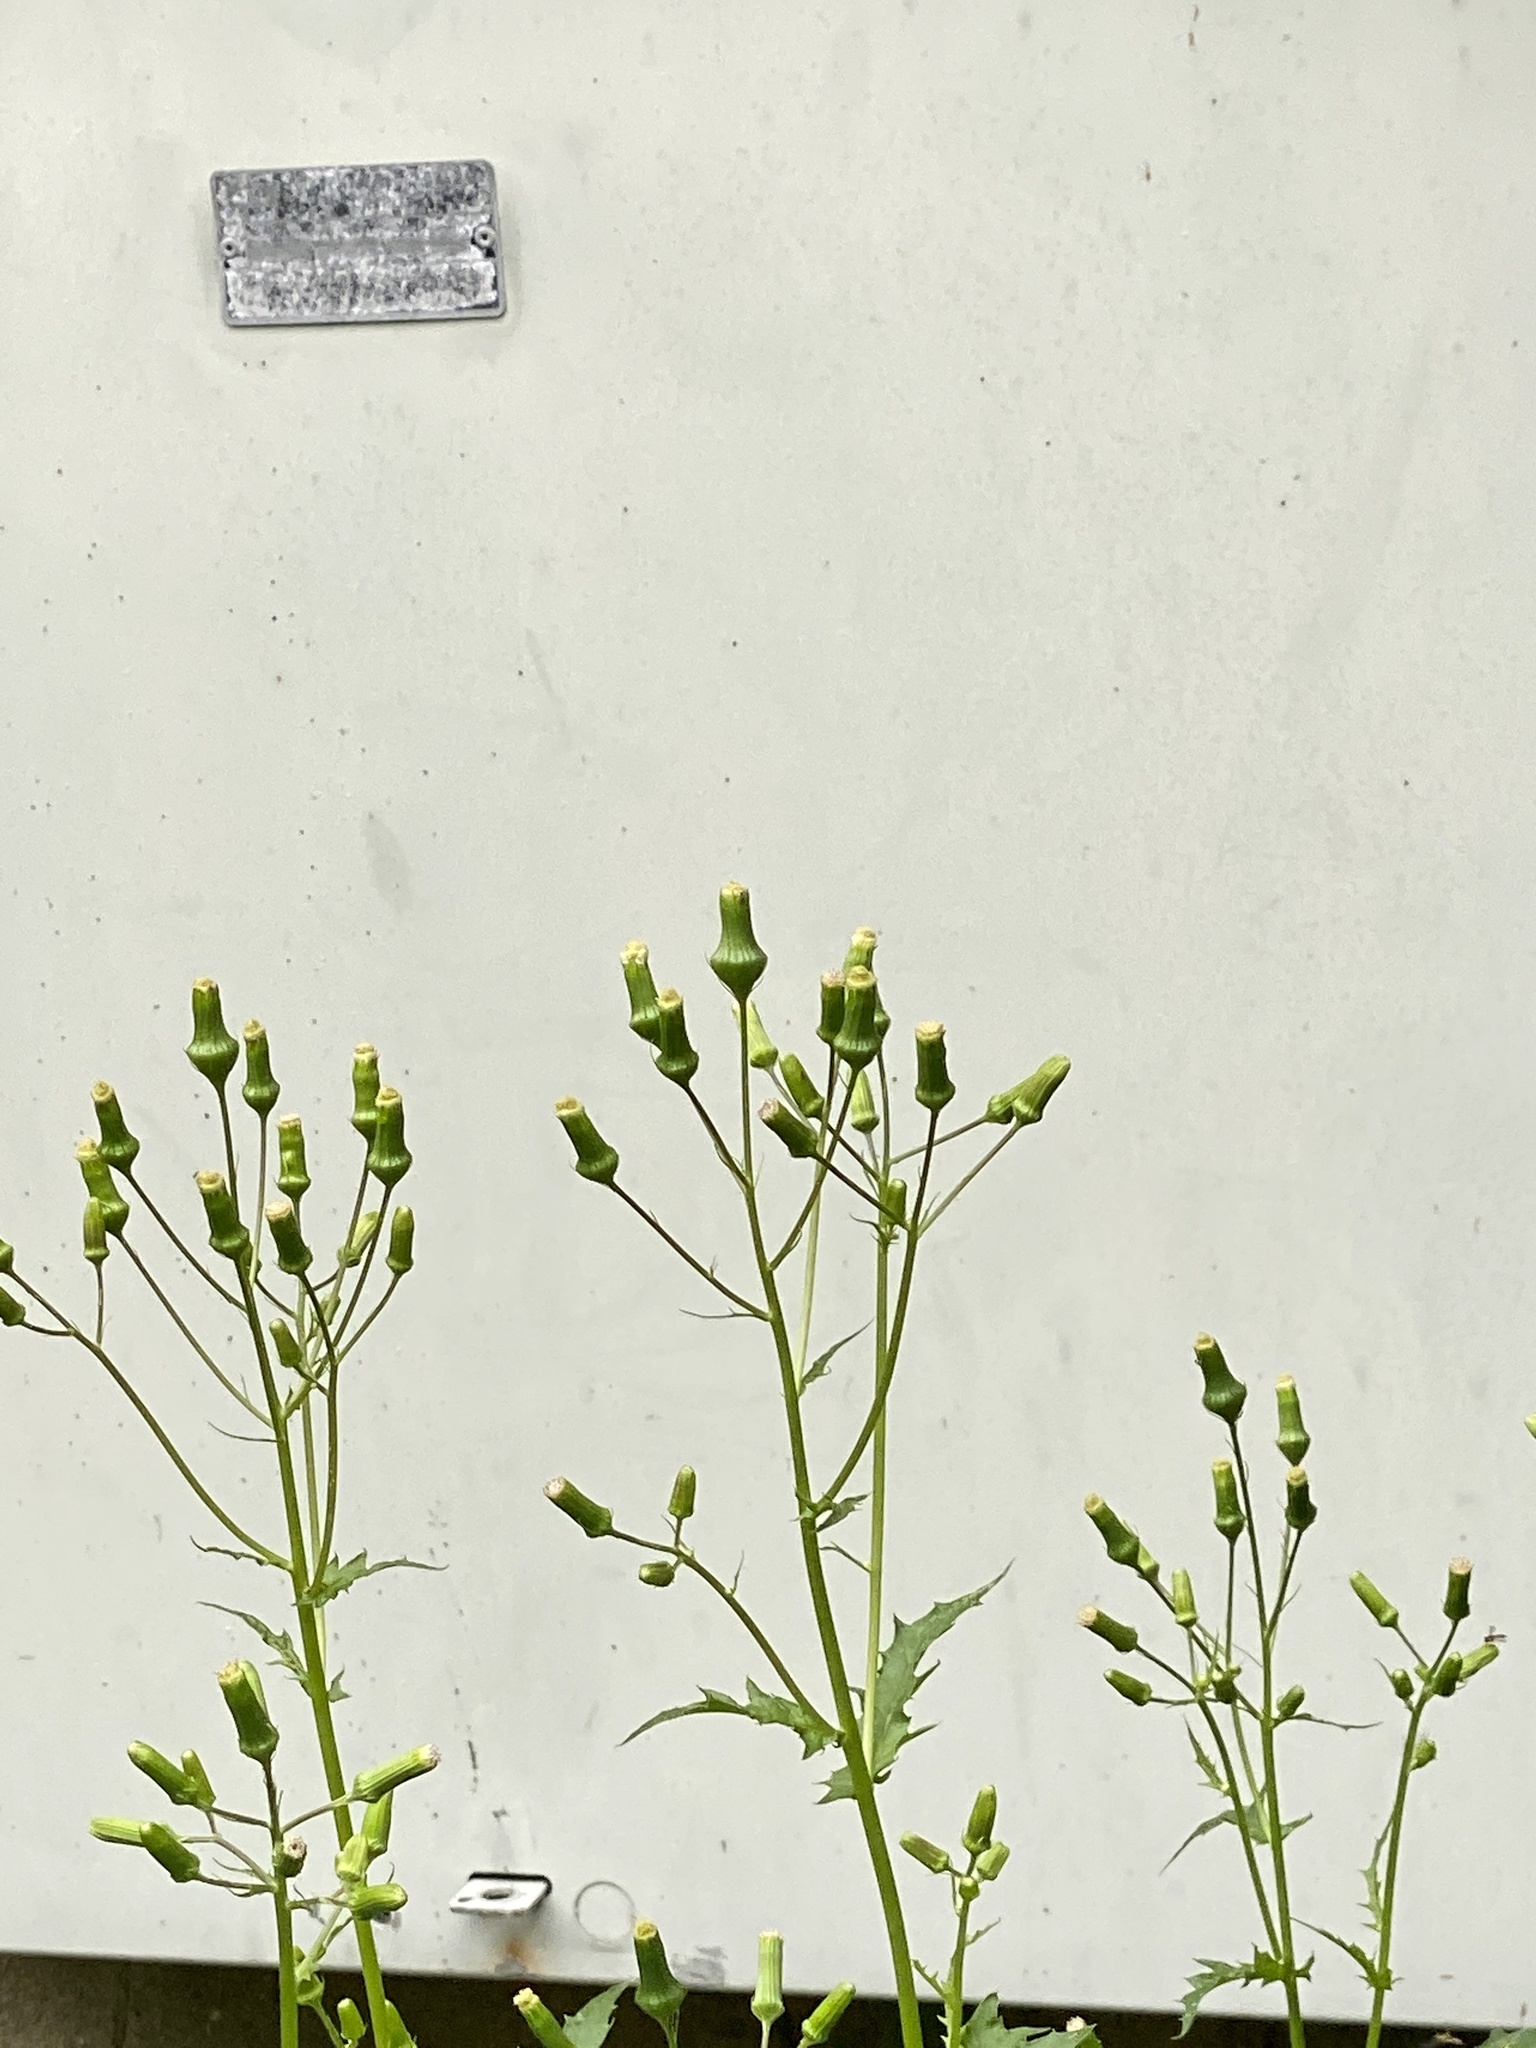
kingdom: Plantae
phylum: Tracheophyta
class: Magnoliopsida
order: Asterales
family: Asteraceae
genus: Erechtites
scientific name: Erechtites hieraciifolius
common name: American burnweed
